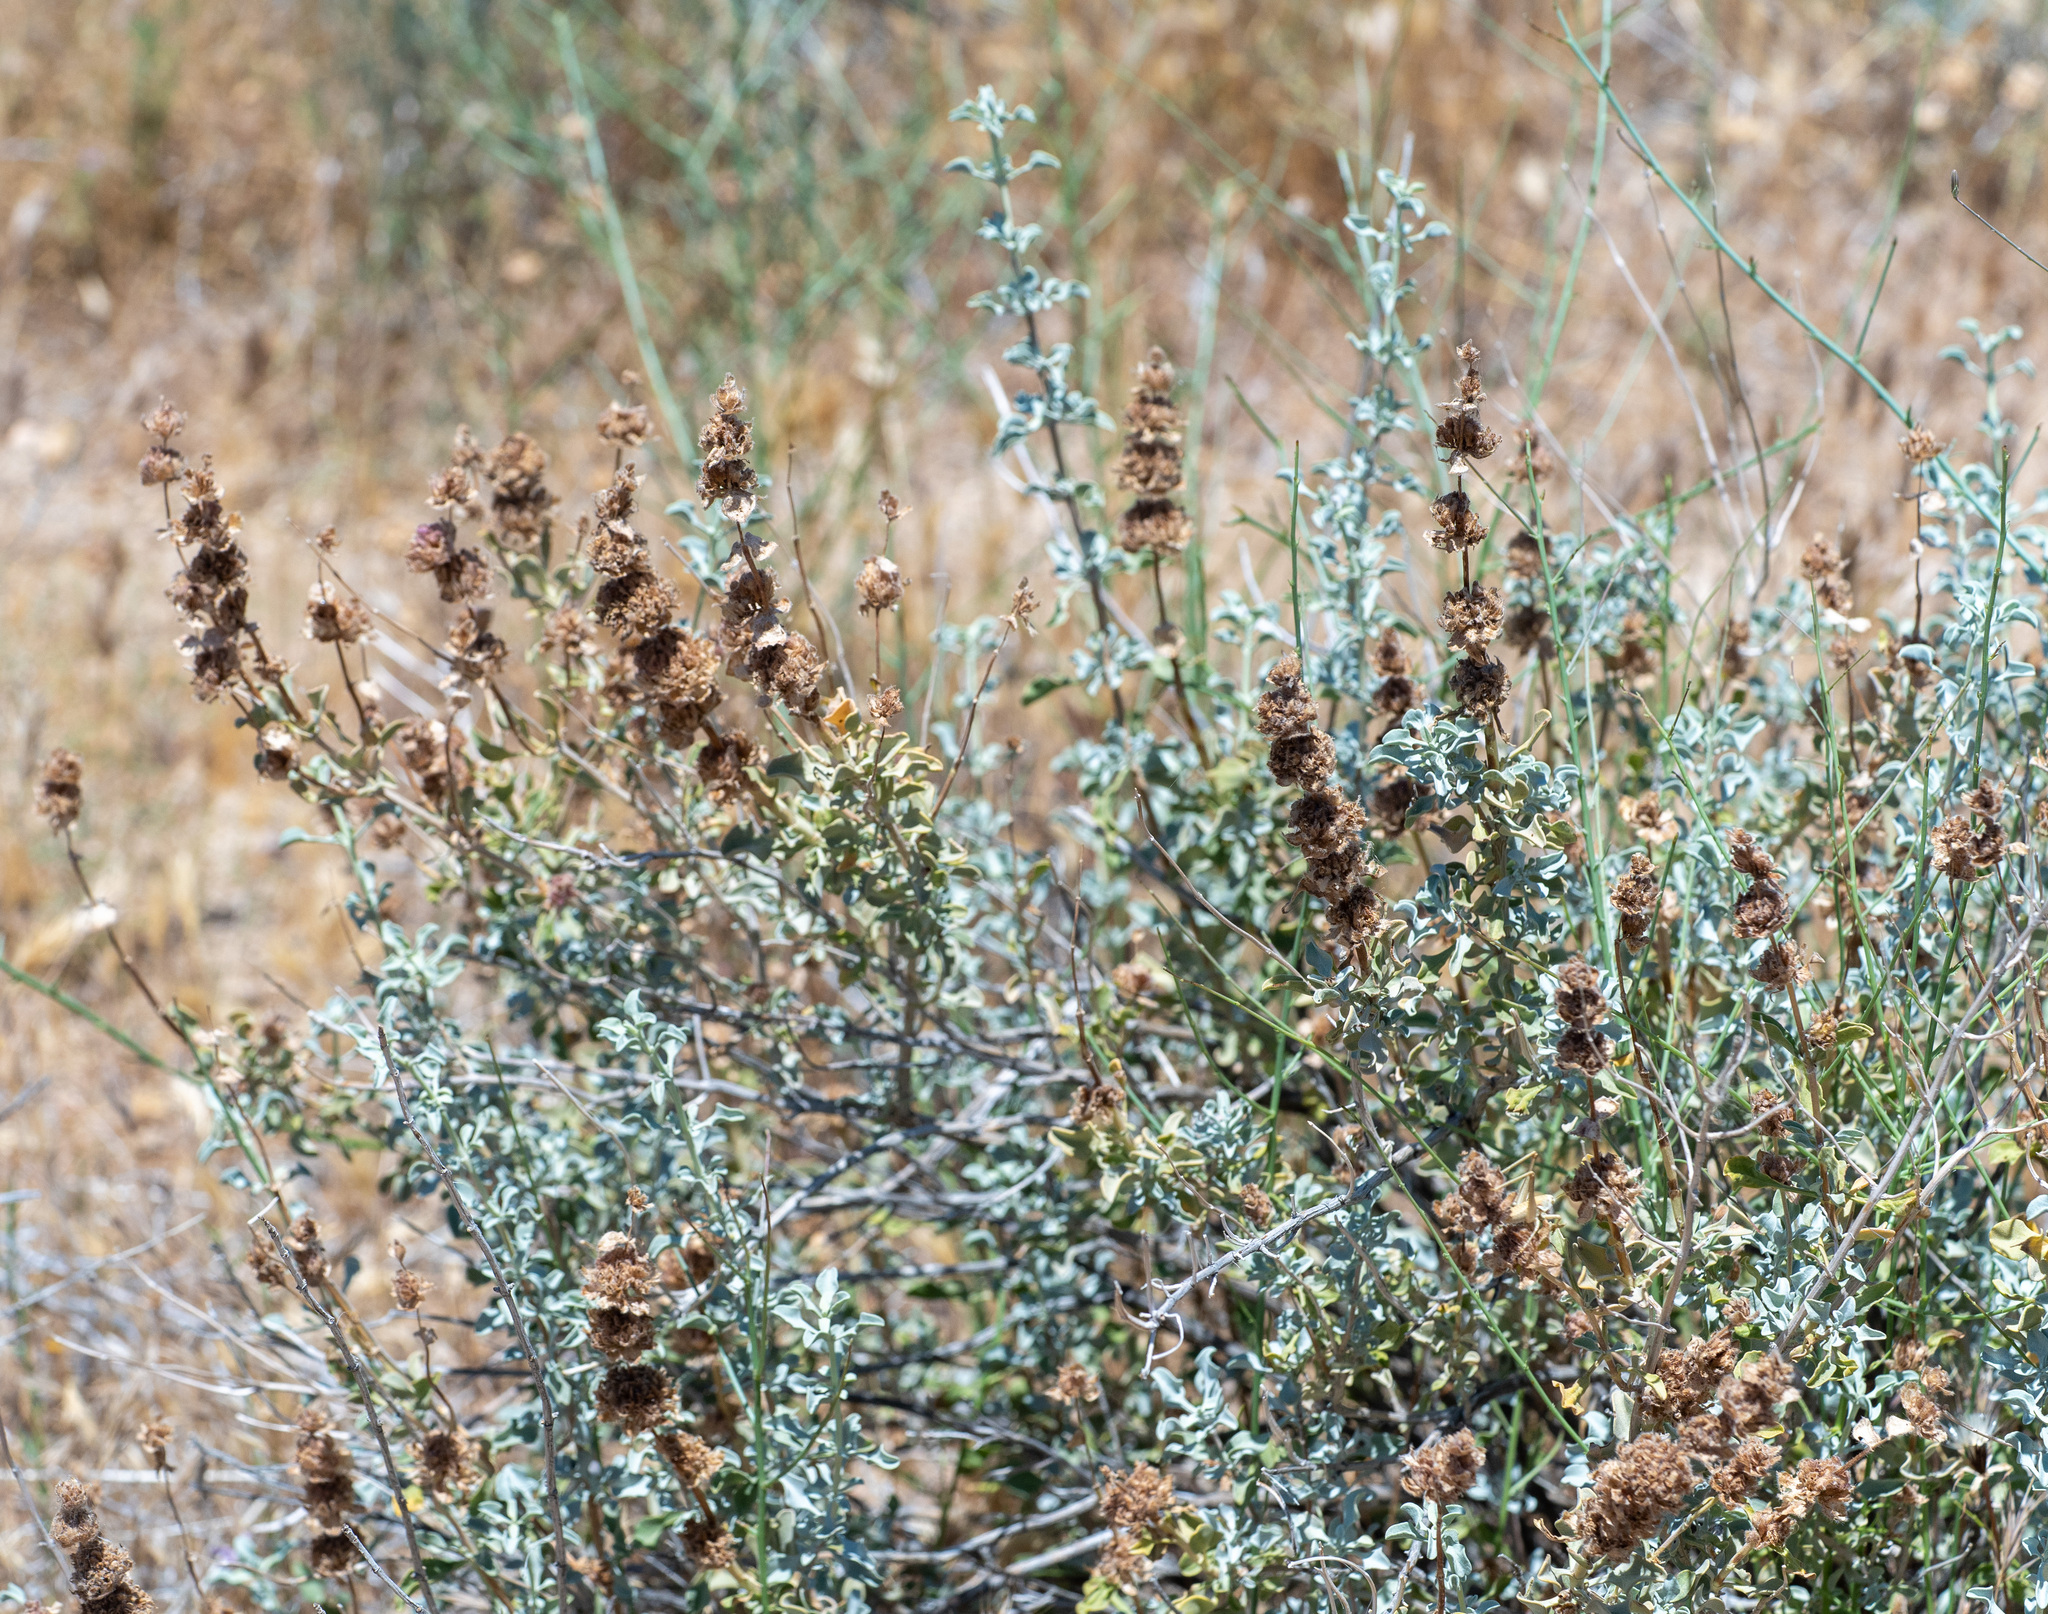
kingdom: Plantae
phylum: Tracheophyta
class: Magnoliopsida
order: Lamiales
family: Lamiaceae
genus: Salvia
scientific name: Salvia dorrii
